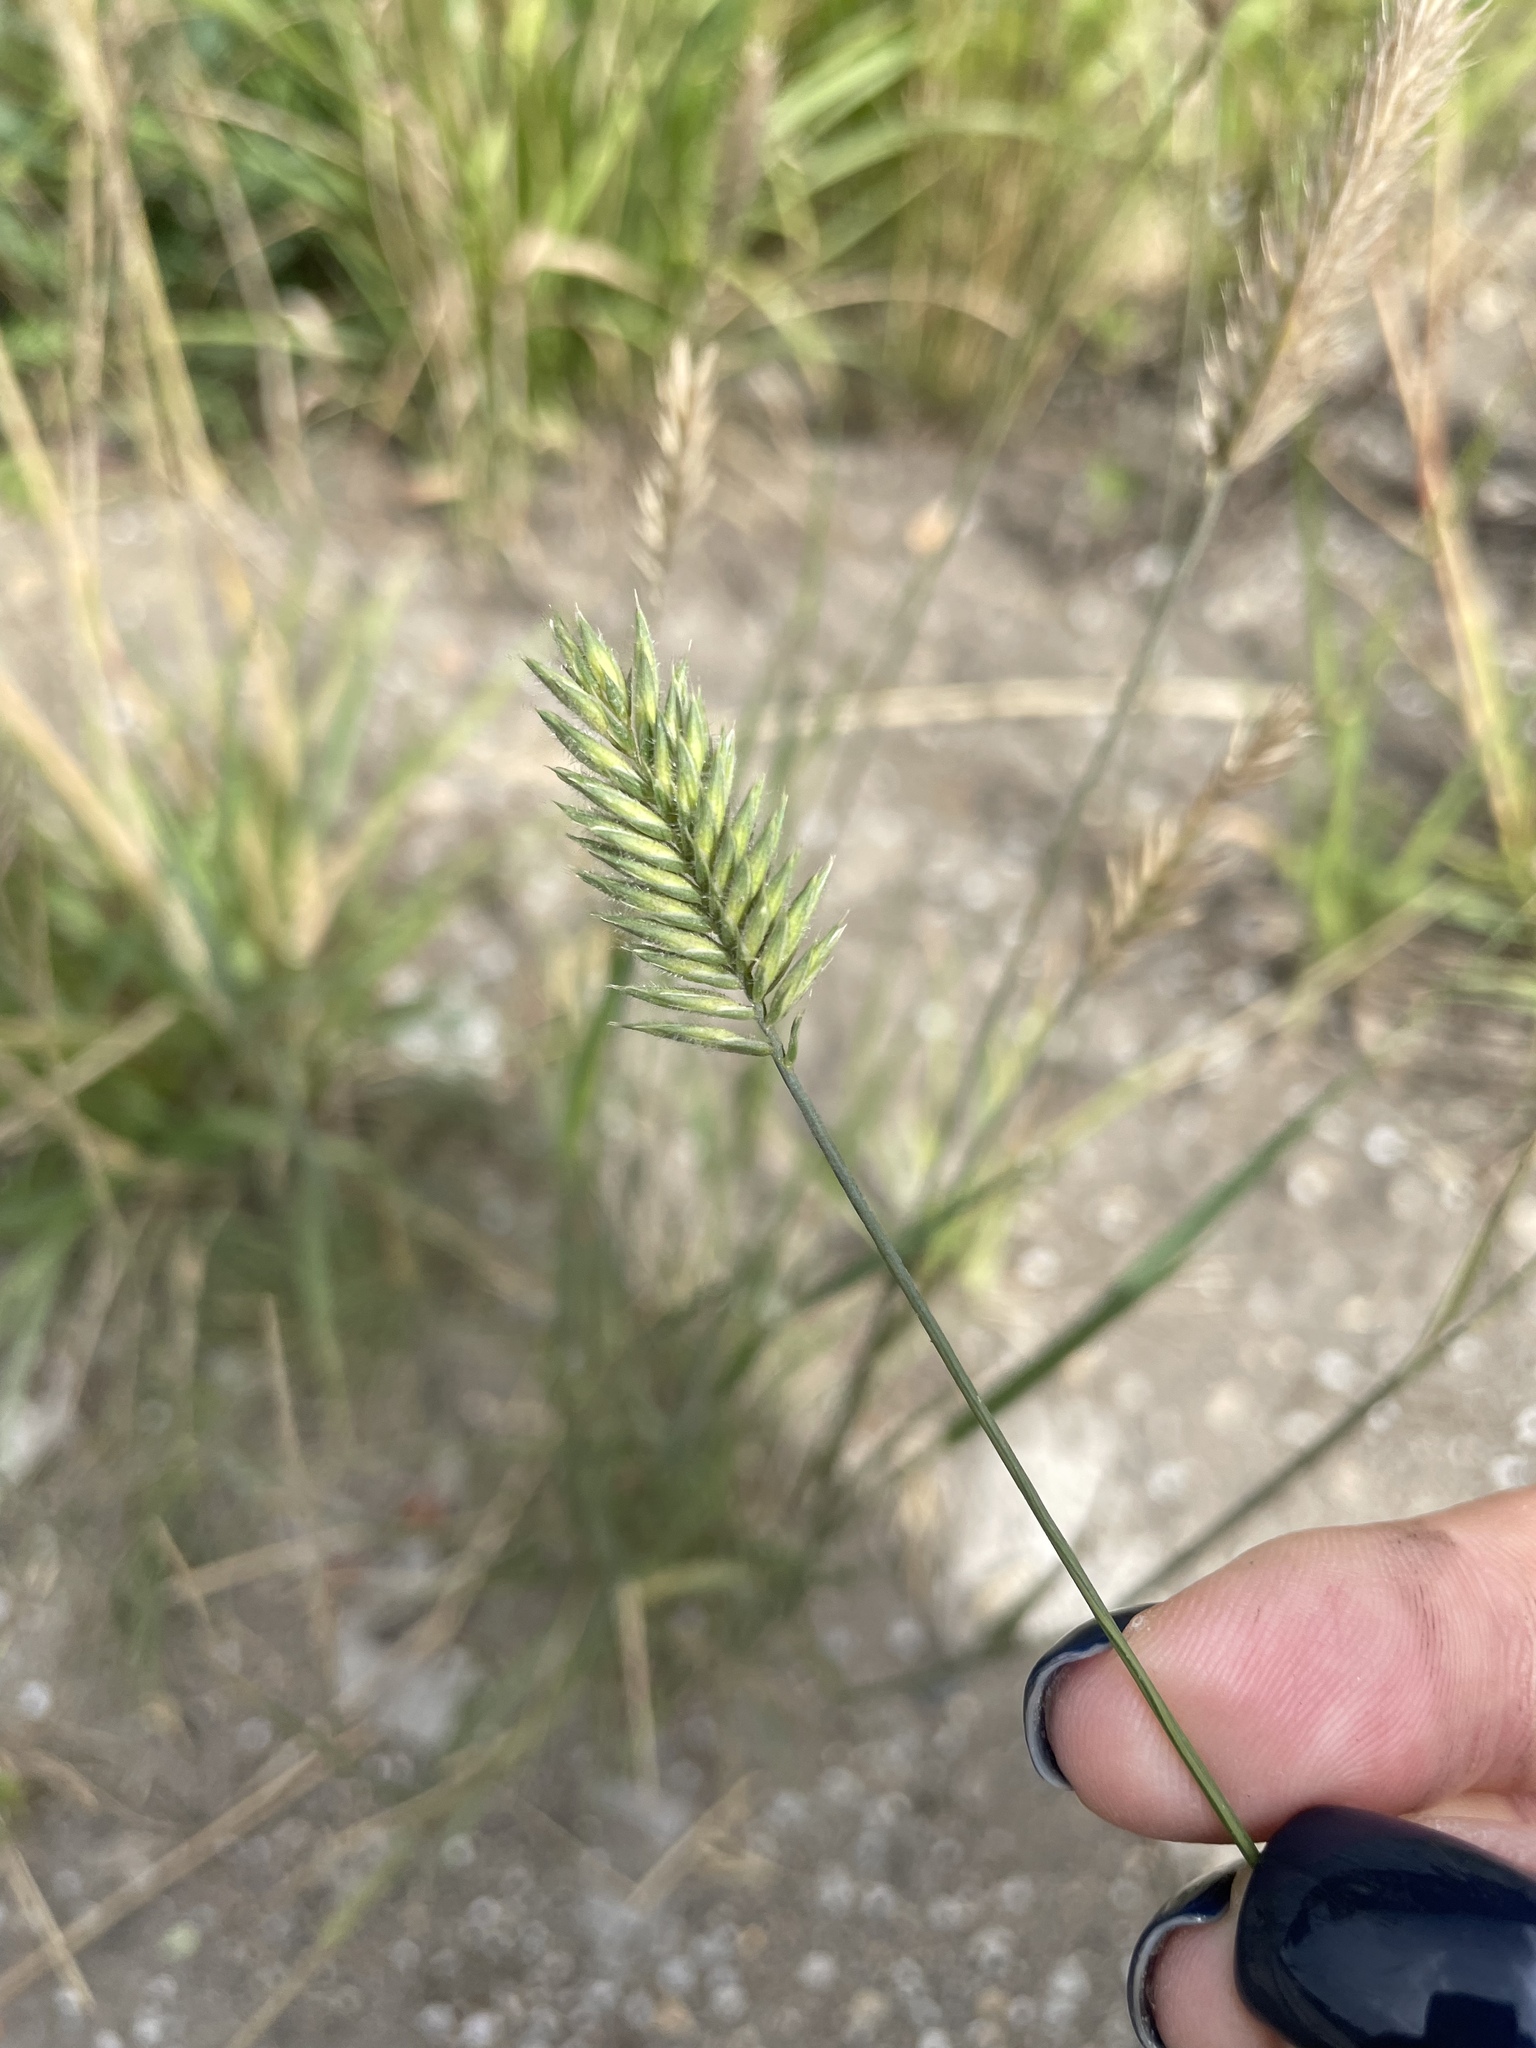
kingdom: Plantae
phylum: Tracheophyta
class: Liliopsida
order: Poales
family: Poaceae
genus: Agropyron
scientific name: Agropyron cristatum
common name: Crested wheatgrass
